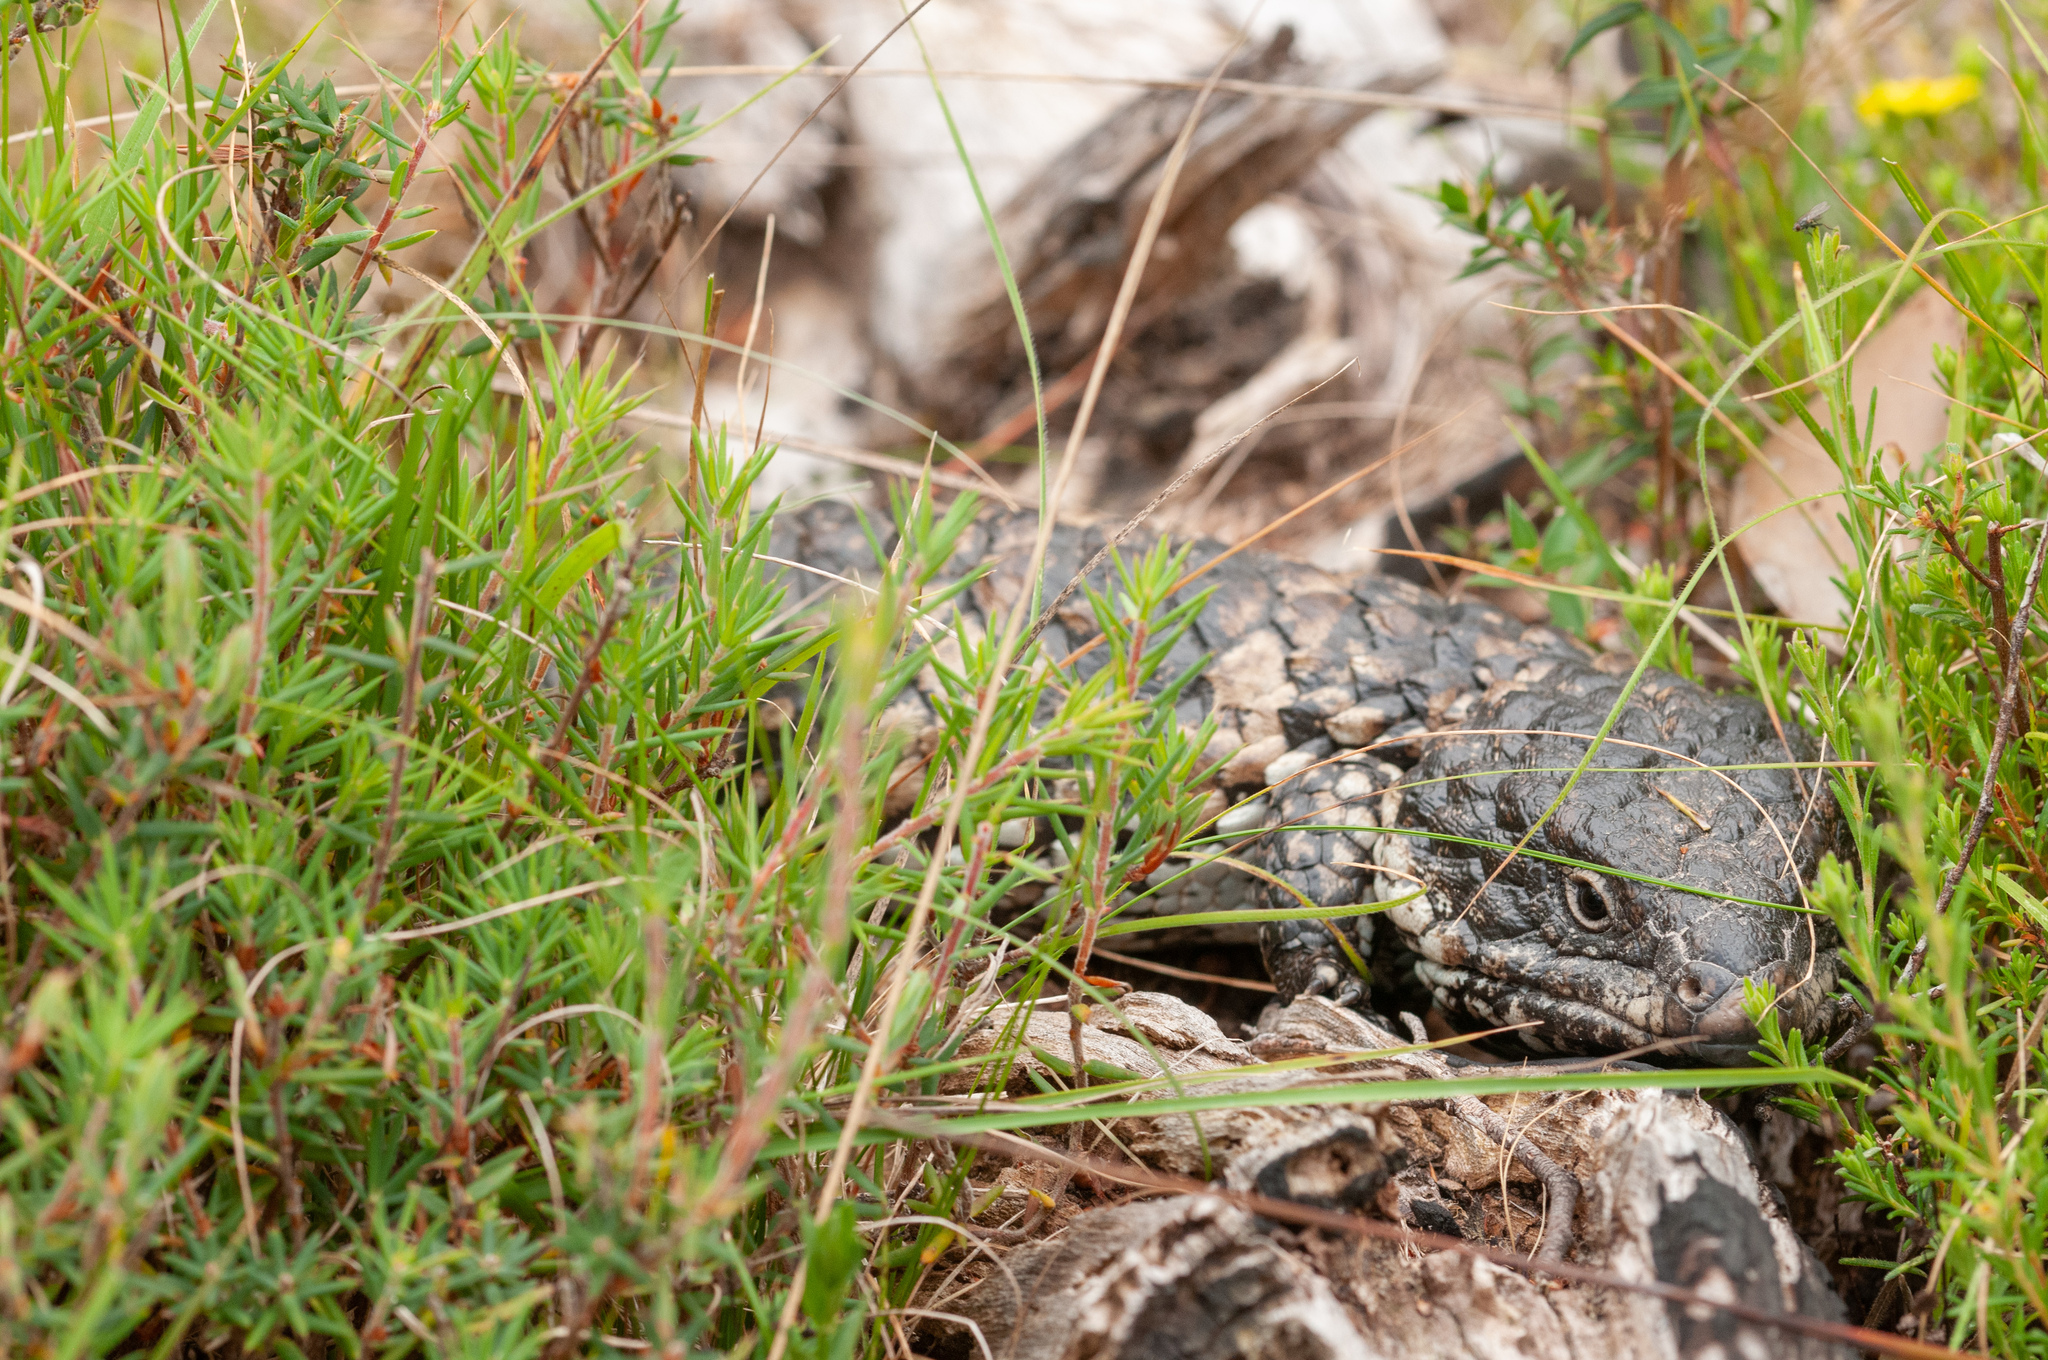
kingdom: Animalia
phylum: Chordata
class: Squamata
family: Scincidae
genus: Tiliqua
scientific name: Tiliqua rugosa
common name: Pinecone lizard
